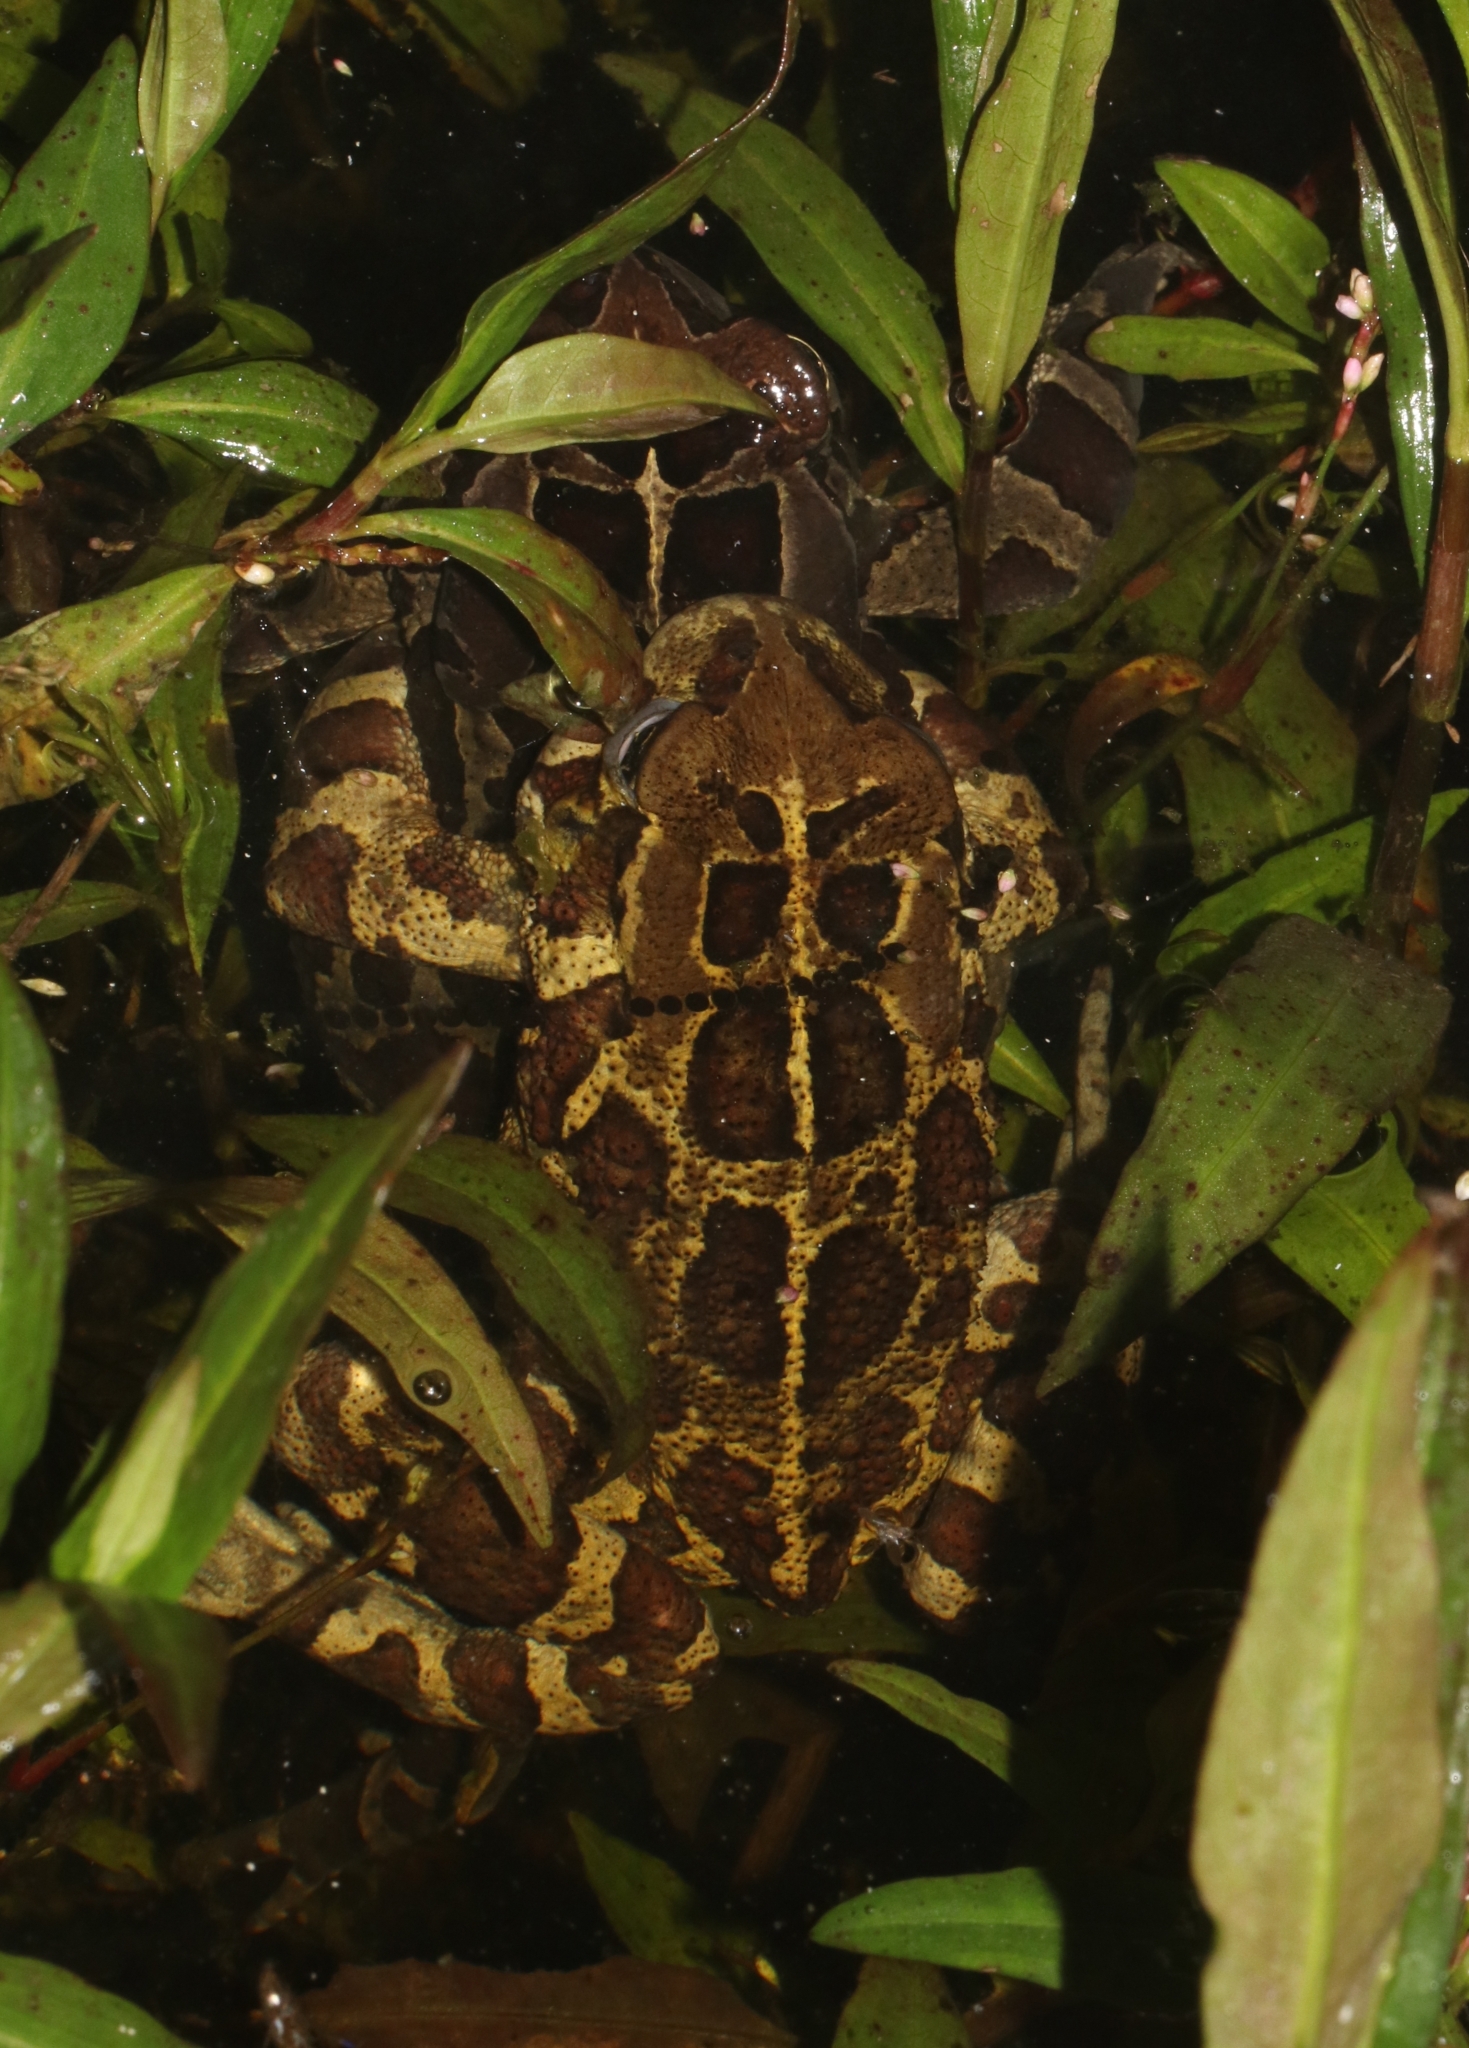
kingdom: Animalia
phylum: Chordata
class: Amphibia
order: Anura
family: Bufonidae
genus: Sclerophrys
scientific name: Sclerophrys pantherina
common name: Panther toad
